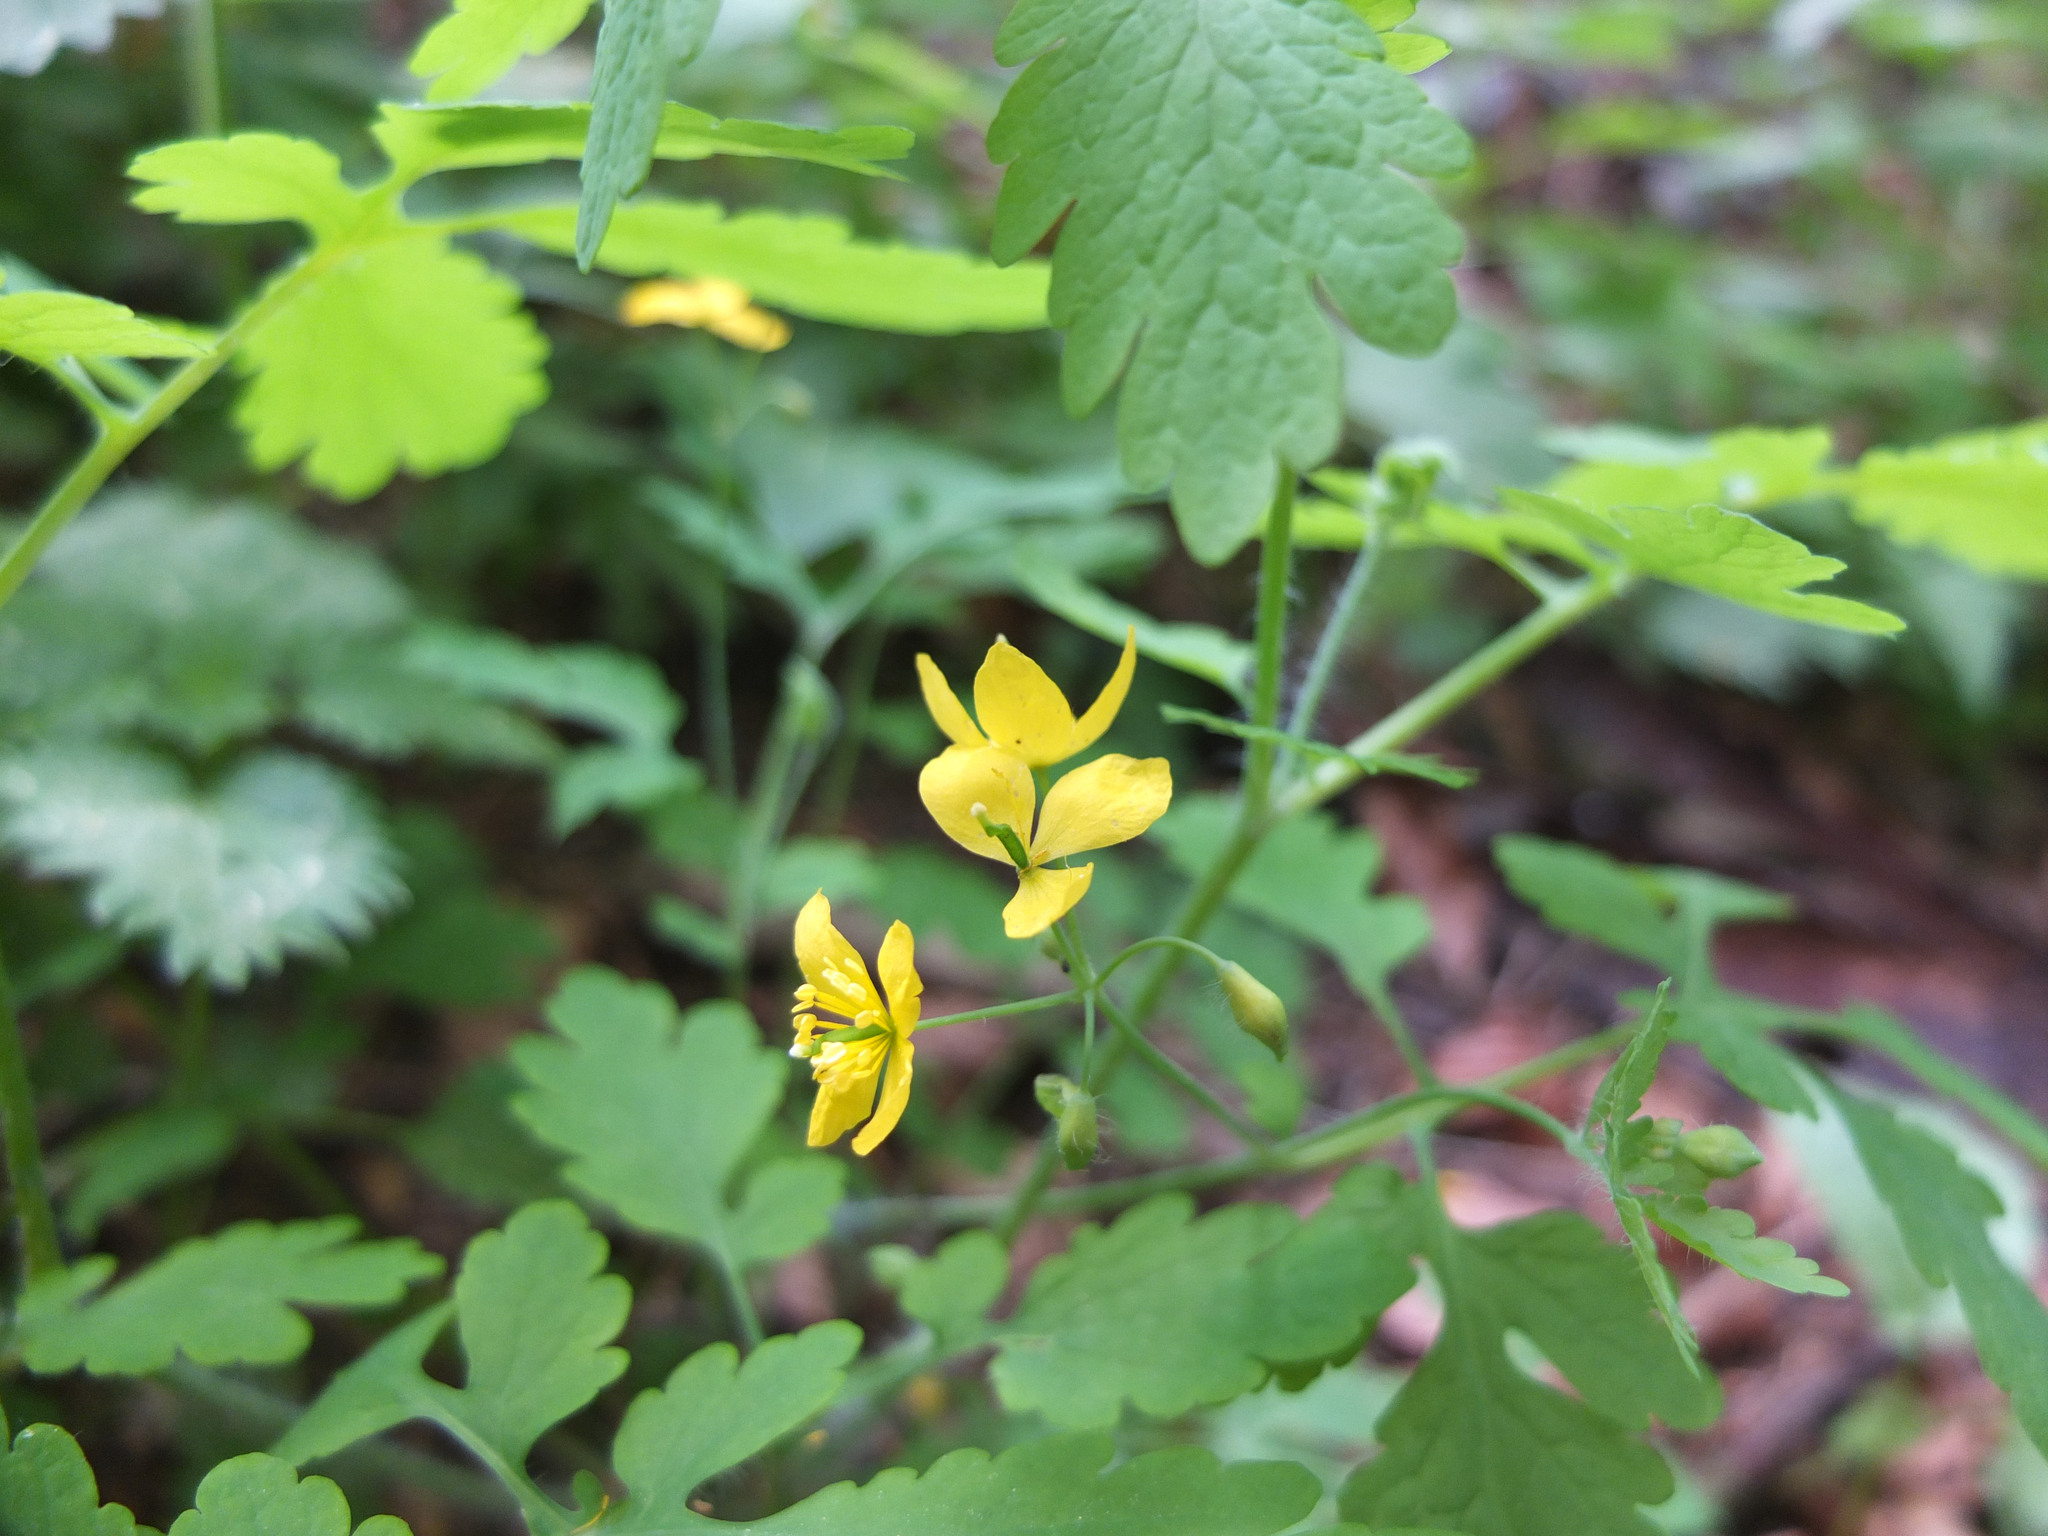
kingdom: Plantae
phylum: Tracheophyta
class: Magnoliopsida
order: Ranunculales
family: Papaveraceae
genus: Chelidonium
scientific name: Chelidonium majus
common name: Greater celandine
